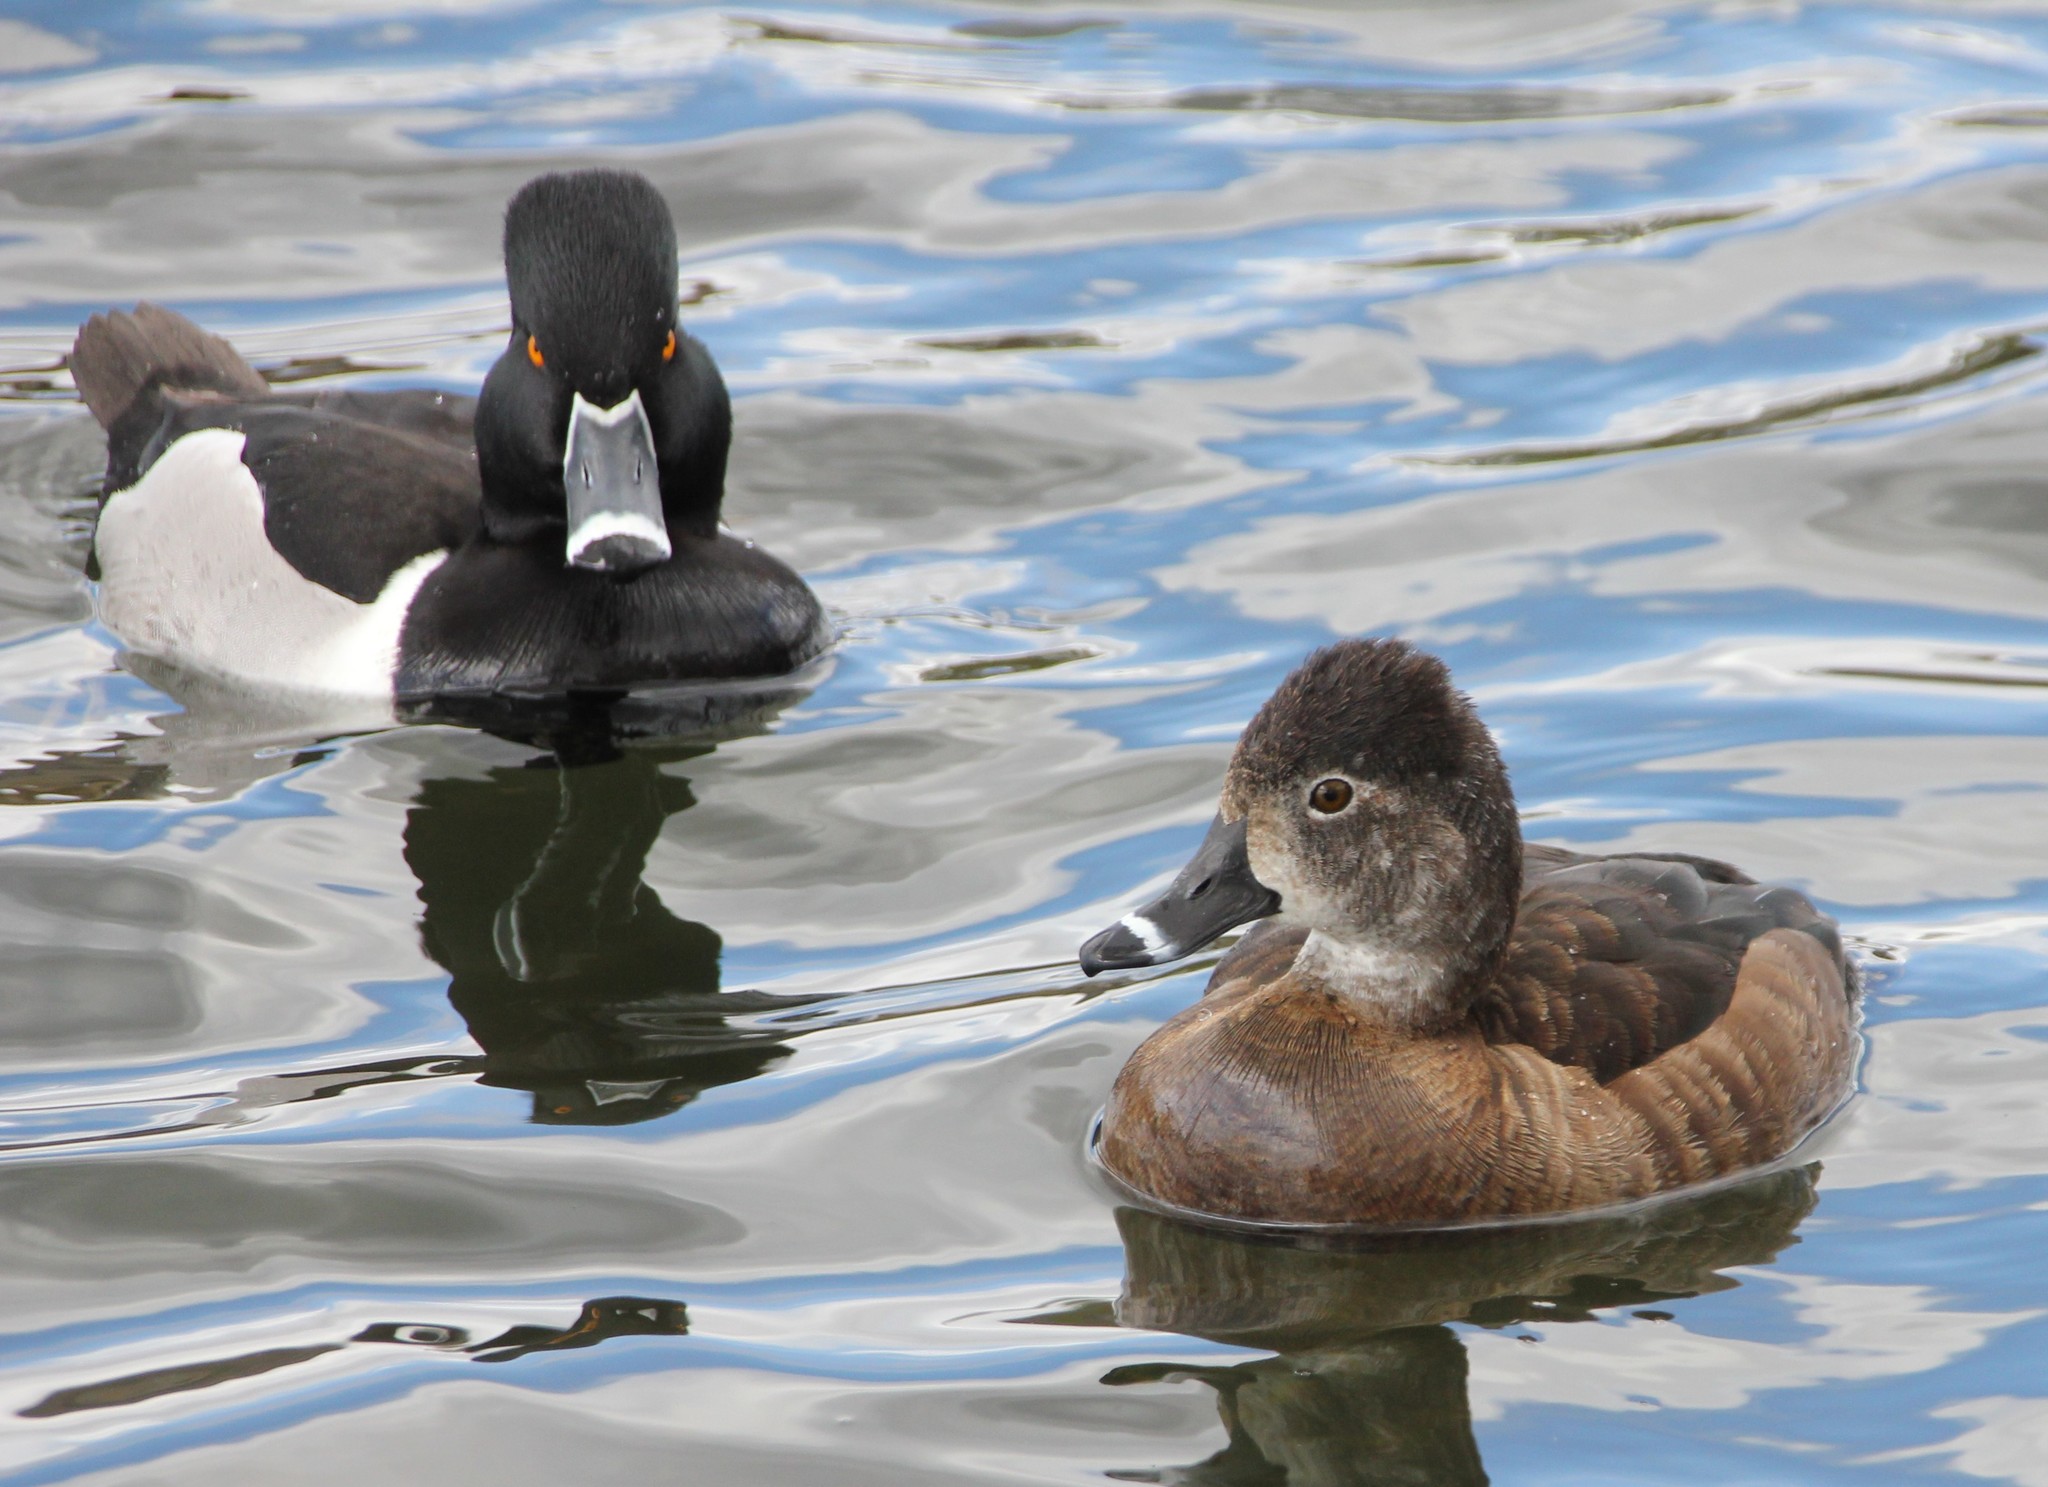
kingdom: Animalia
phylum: Chordata
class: Aves
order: Anseriformes
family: Anatidae
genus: Aythya
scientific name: Aythya collaris
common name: Ring-necked duck
